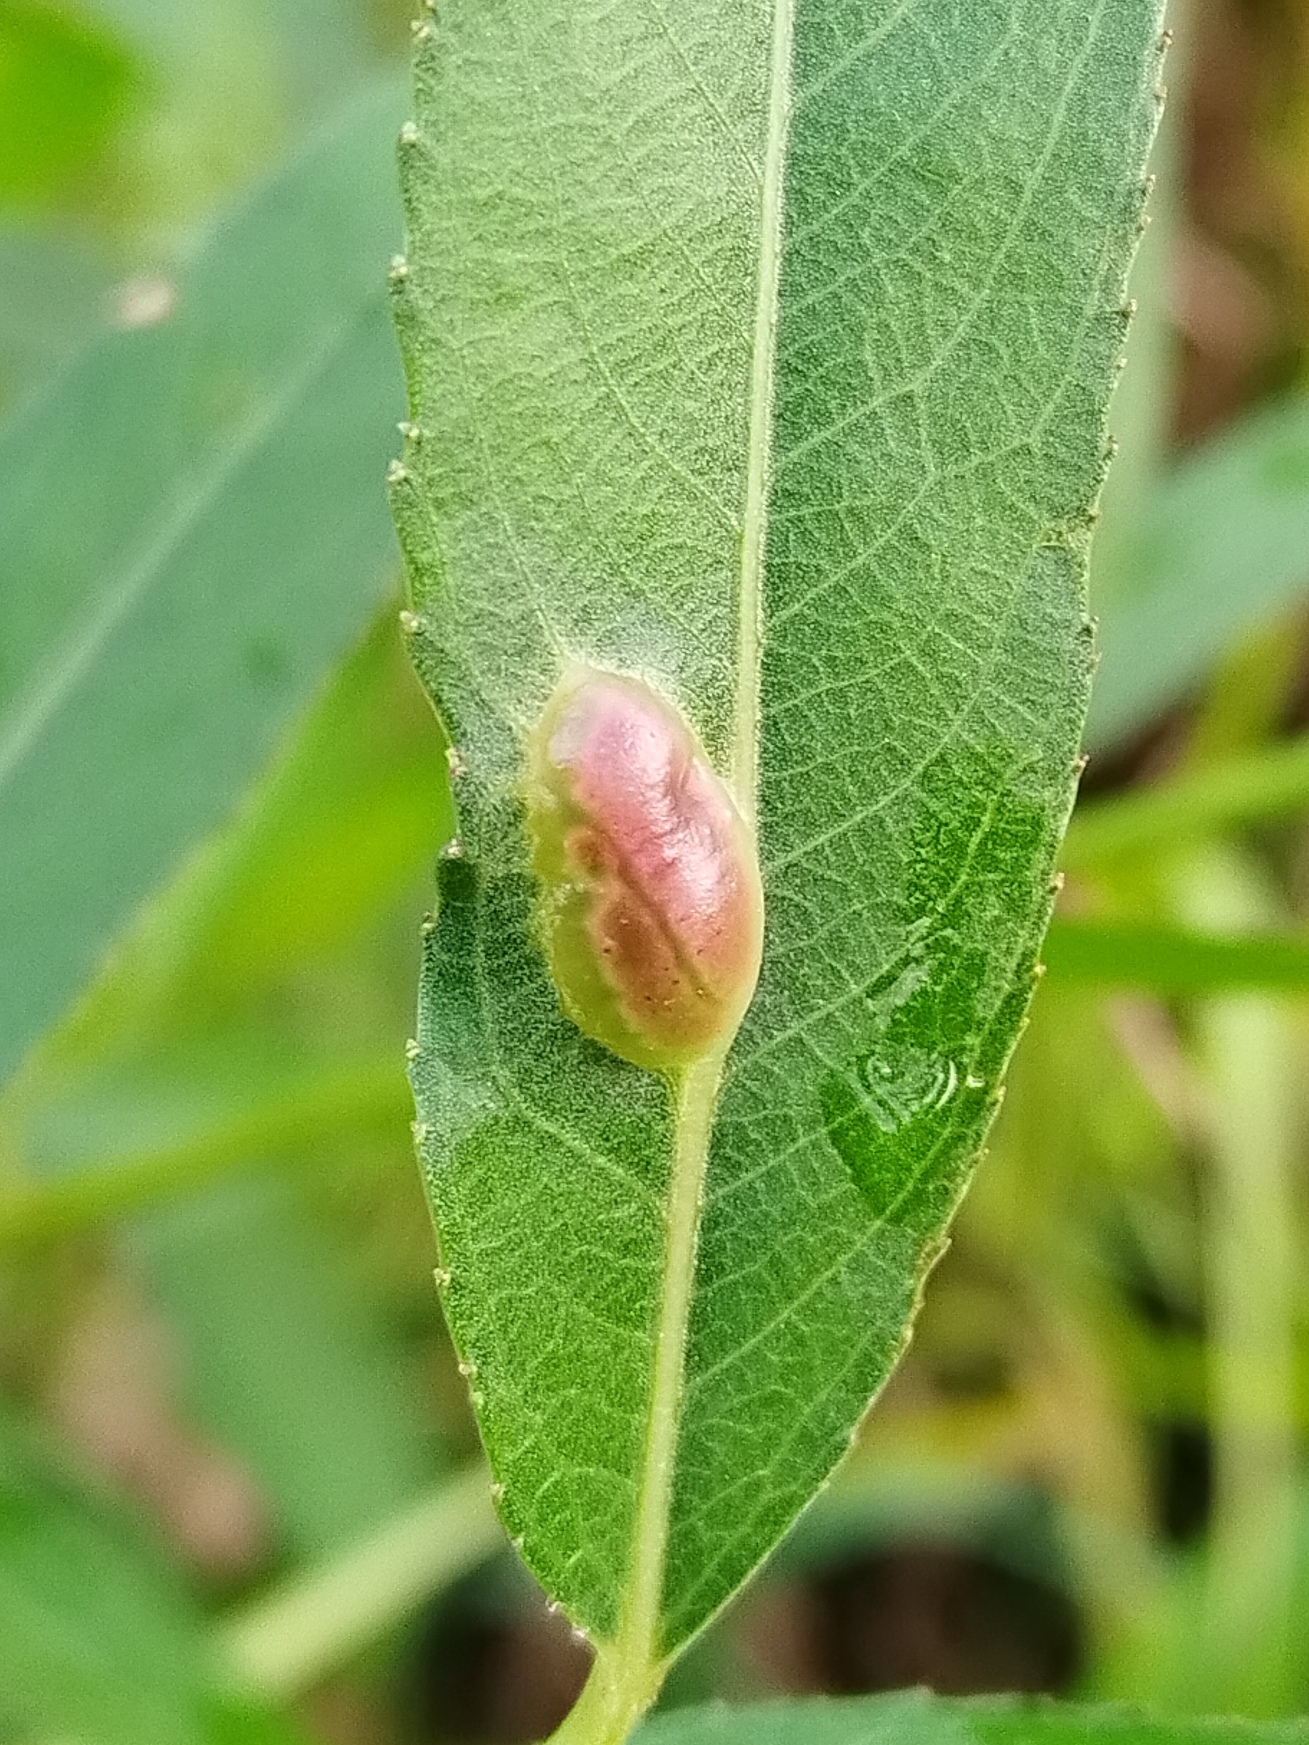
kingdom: Animalia
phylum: Arthropoda
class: Insecta
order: Hymenoptera
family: Tenthredinidae
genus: Pontania
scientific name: Pontania proxima
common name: Common sawfly
